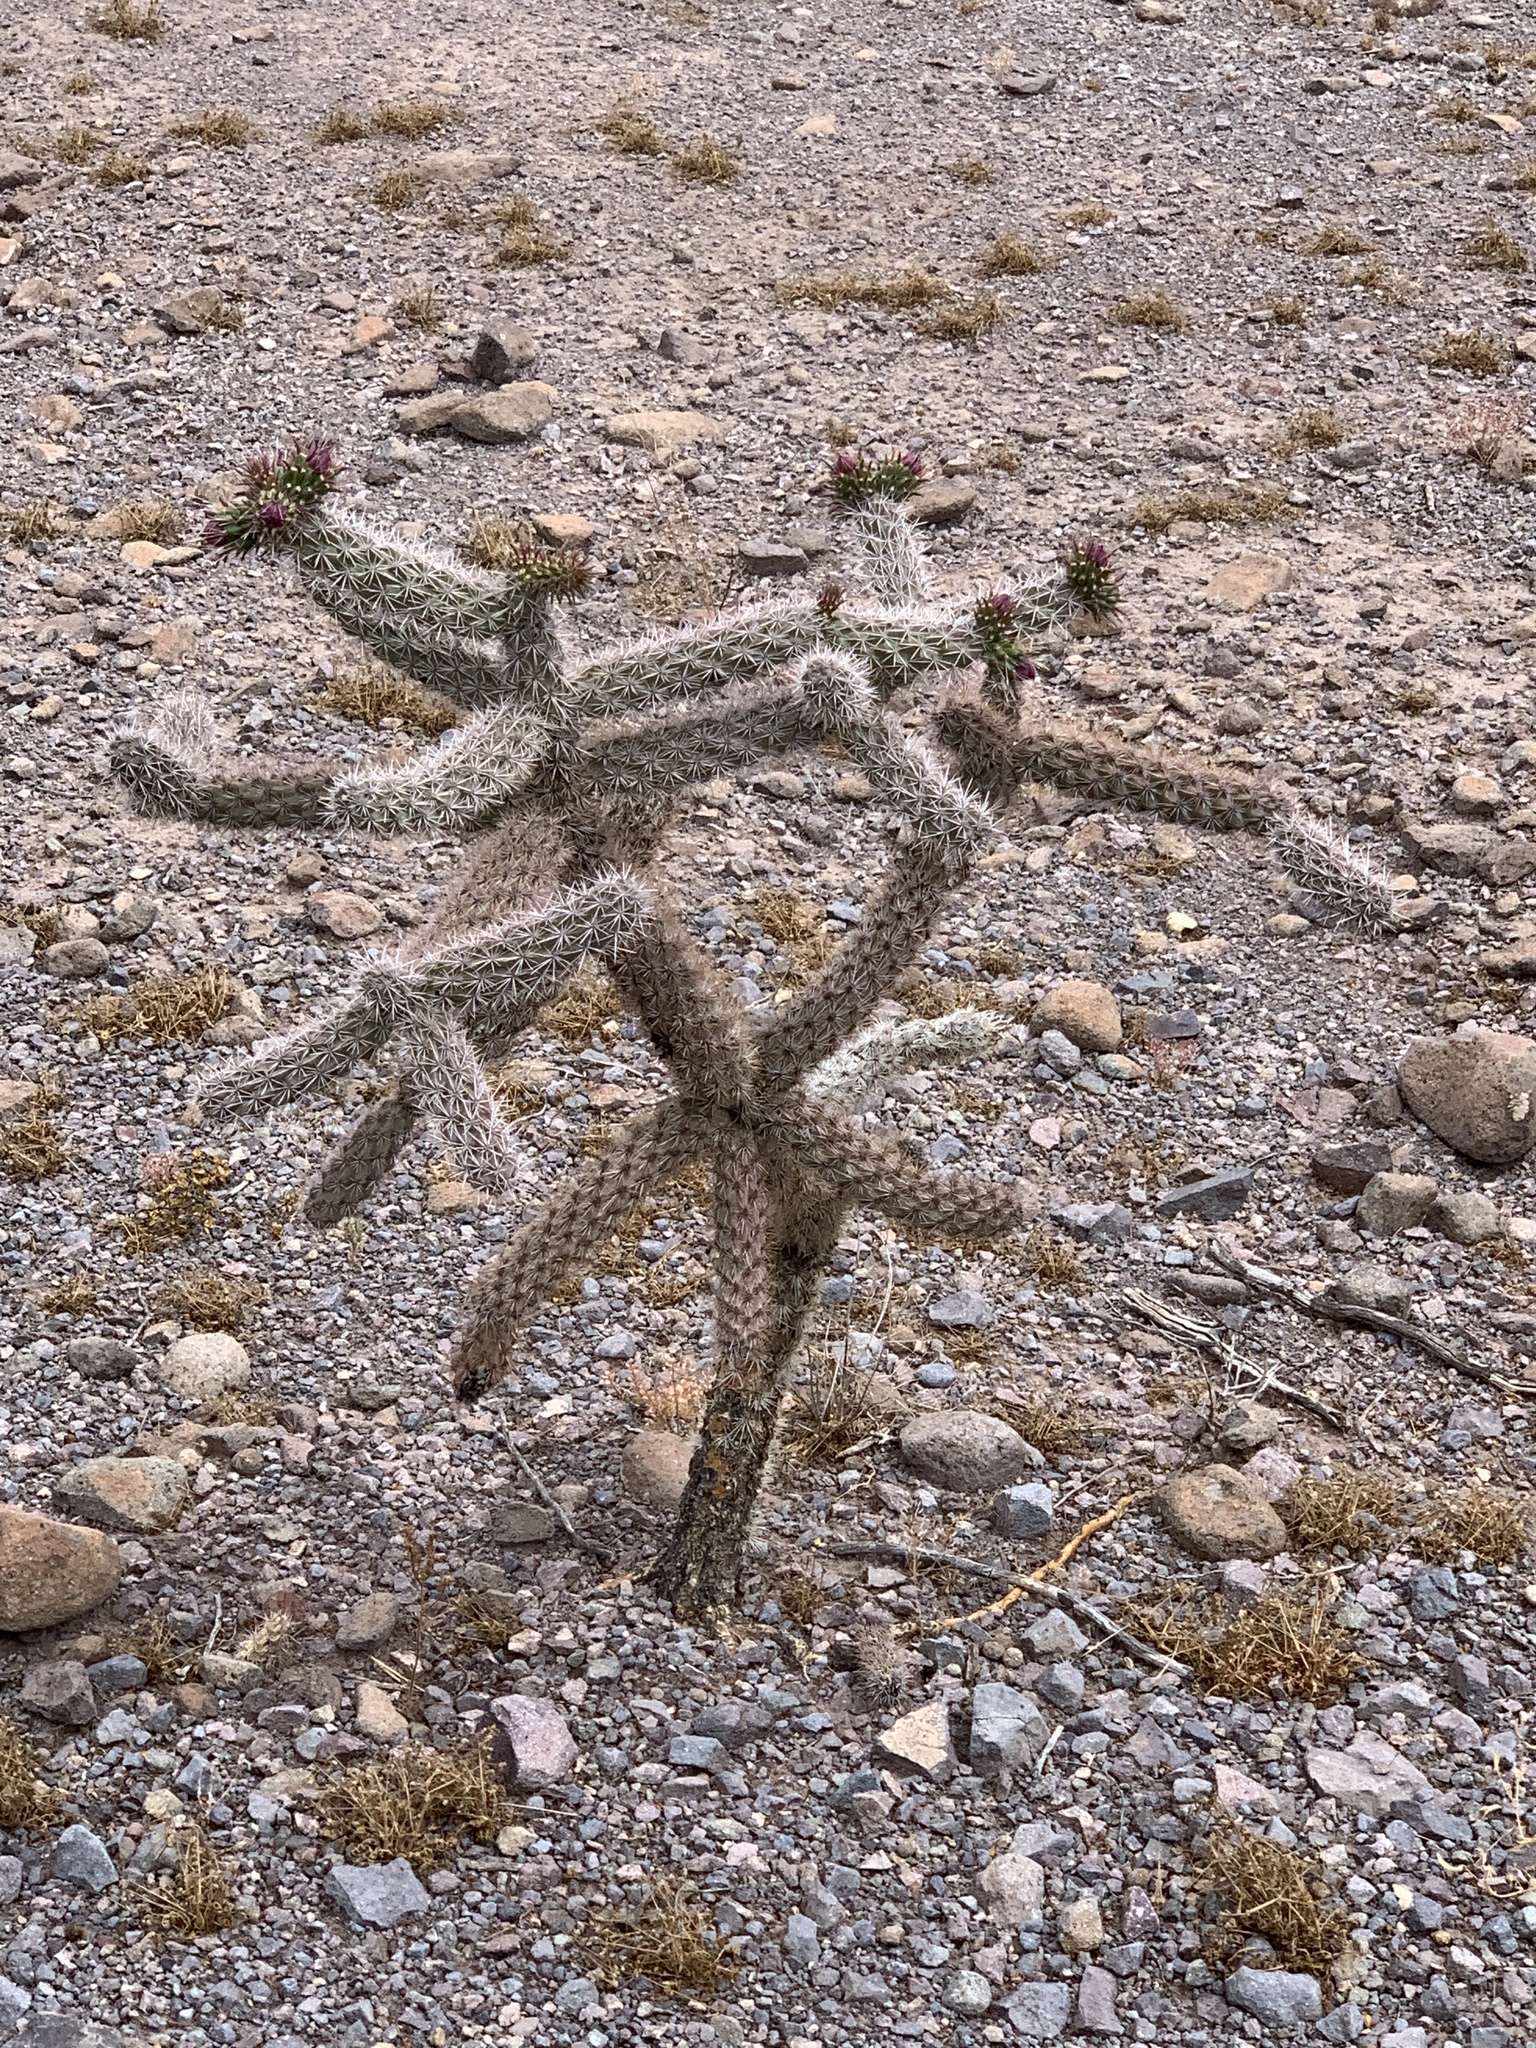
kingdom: Plantae
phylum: Tracheophyta
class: Magnoliopsida
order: Caryophyllales
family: Cactaceae
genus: Cylindropuntia
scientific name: Cylindropuntia imbricata
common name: Candelabrum cactus
